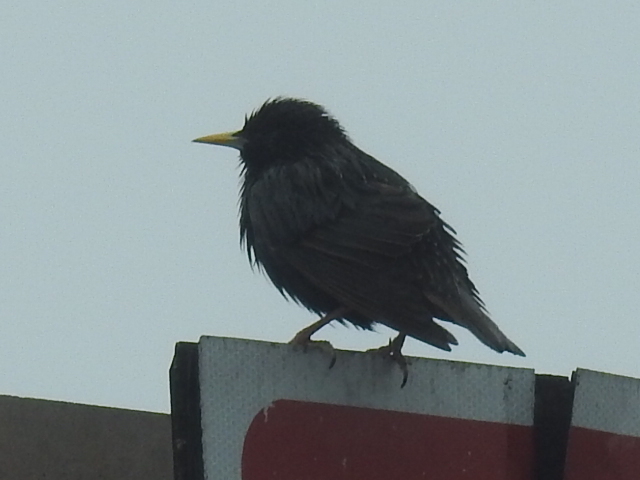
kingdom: Animalia
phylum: Chordata
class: Aves
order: Passeriformes
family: Sturnidae
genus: Sturnus
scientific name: Sturnus vulgaris
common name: Common starling
